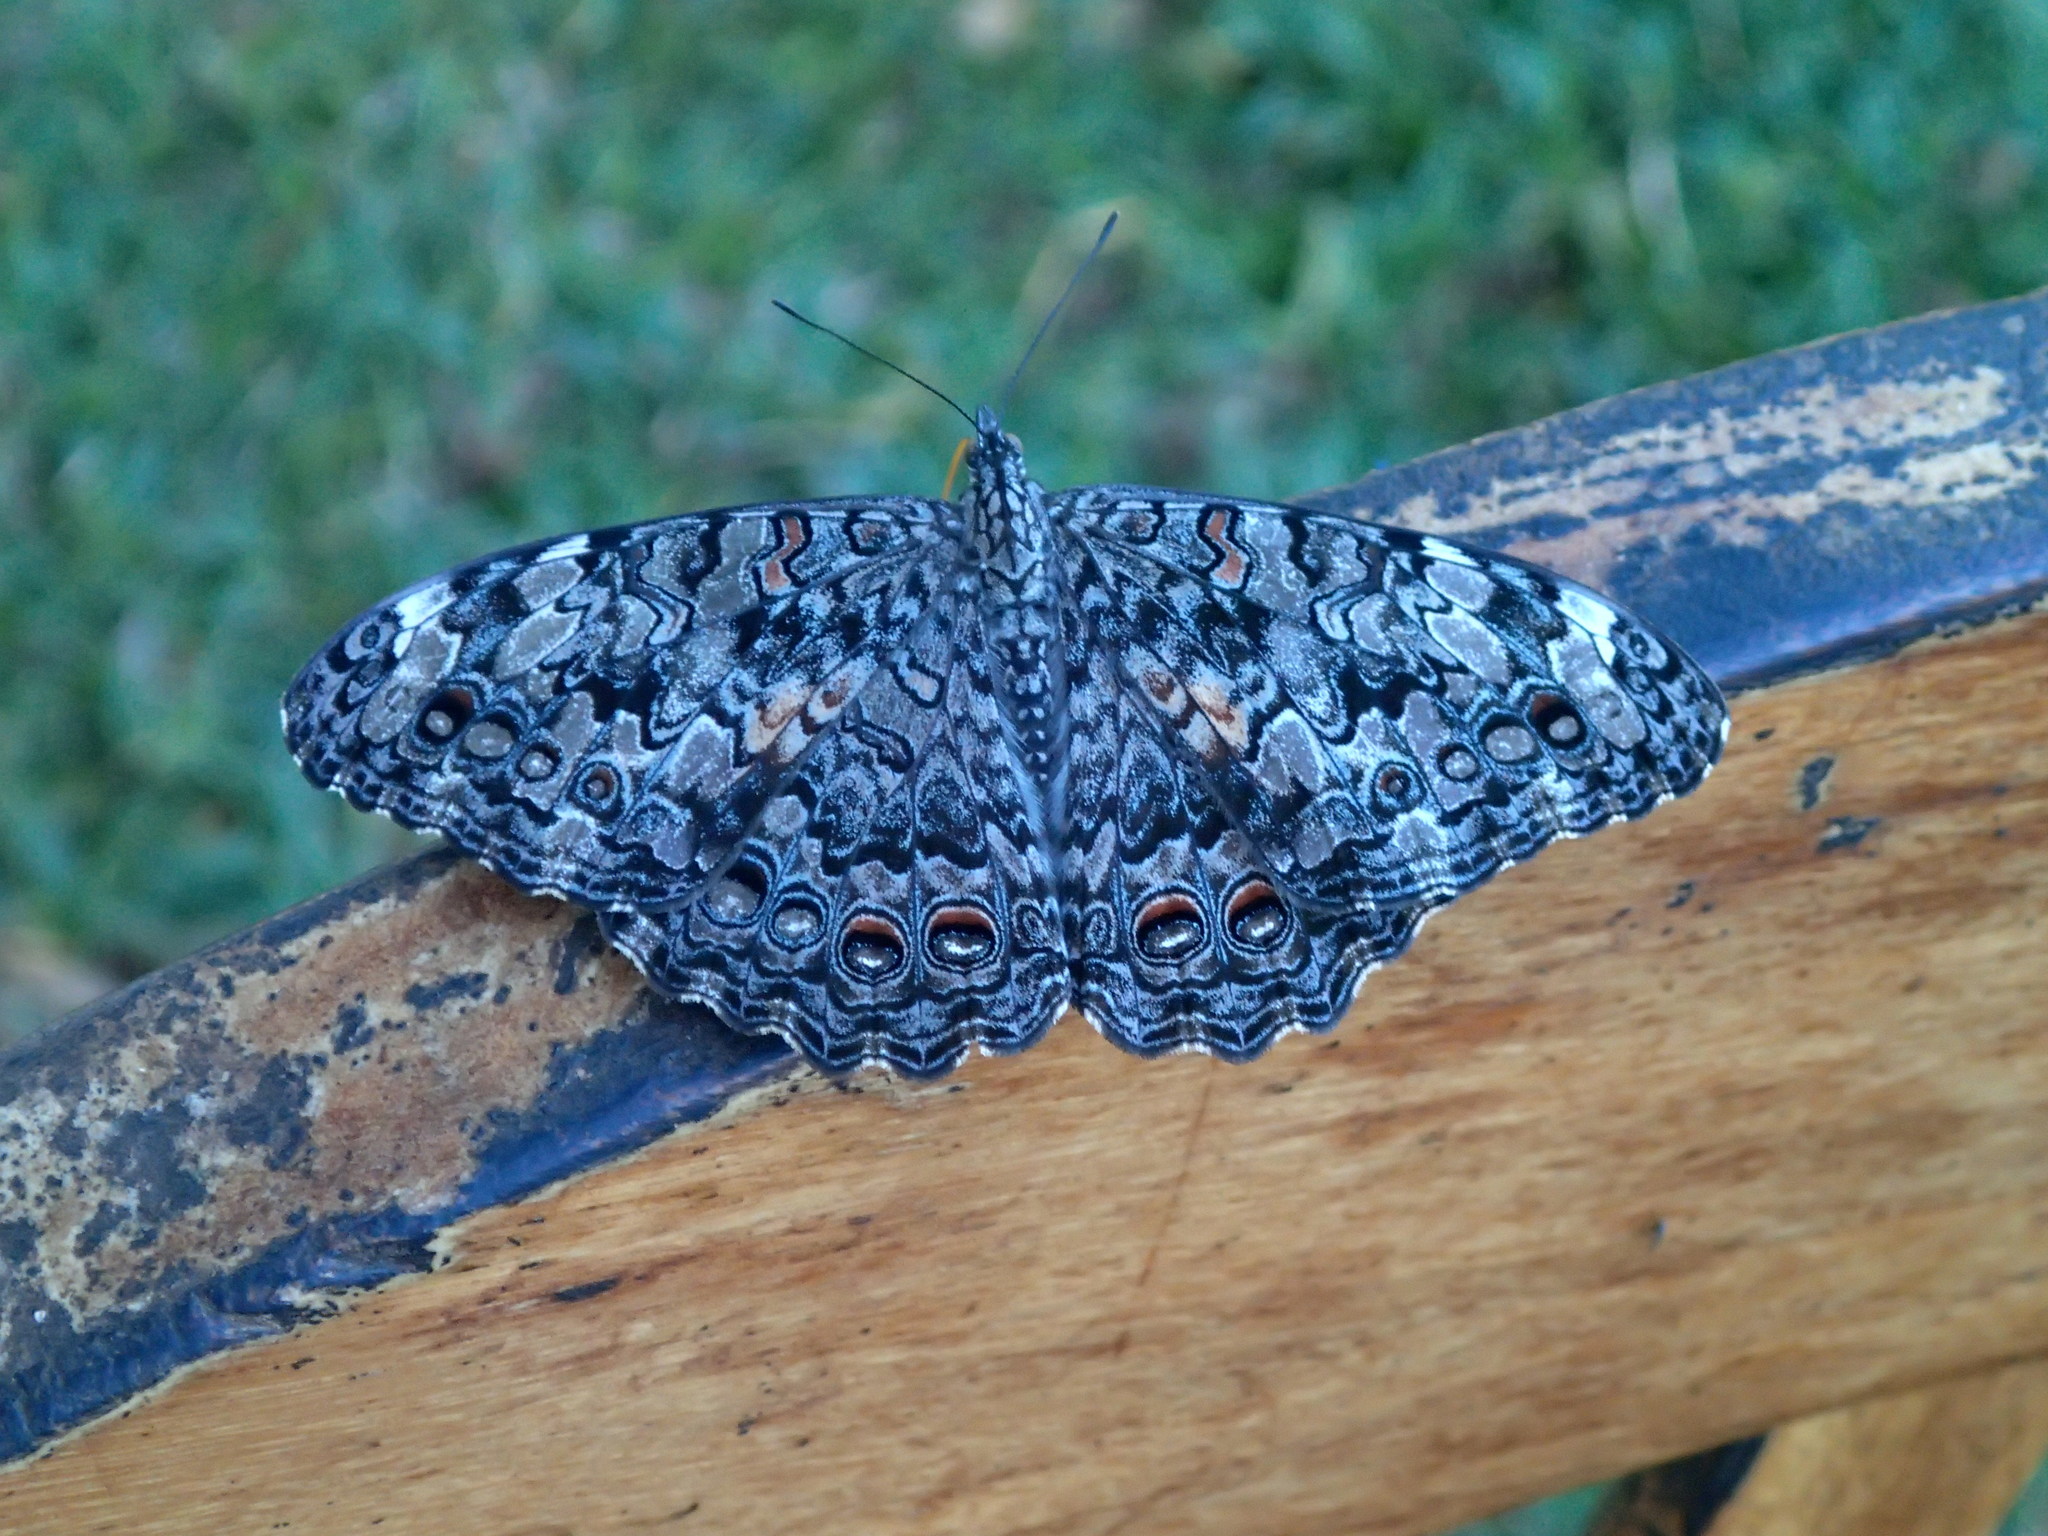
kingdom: Animalia
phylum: Arthropoda
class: Insecta
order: Lepidoptera
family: Nymphalidae
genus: Hamadryas
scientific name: Hamadryas februa
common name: Gray cracker
